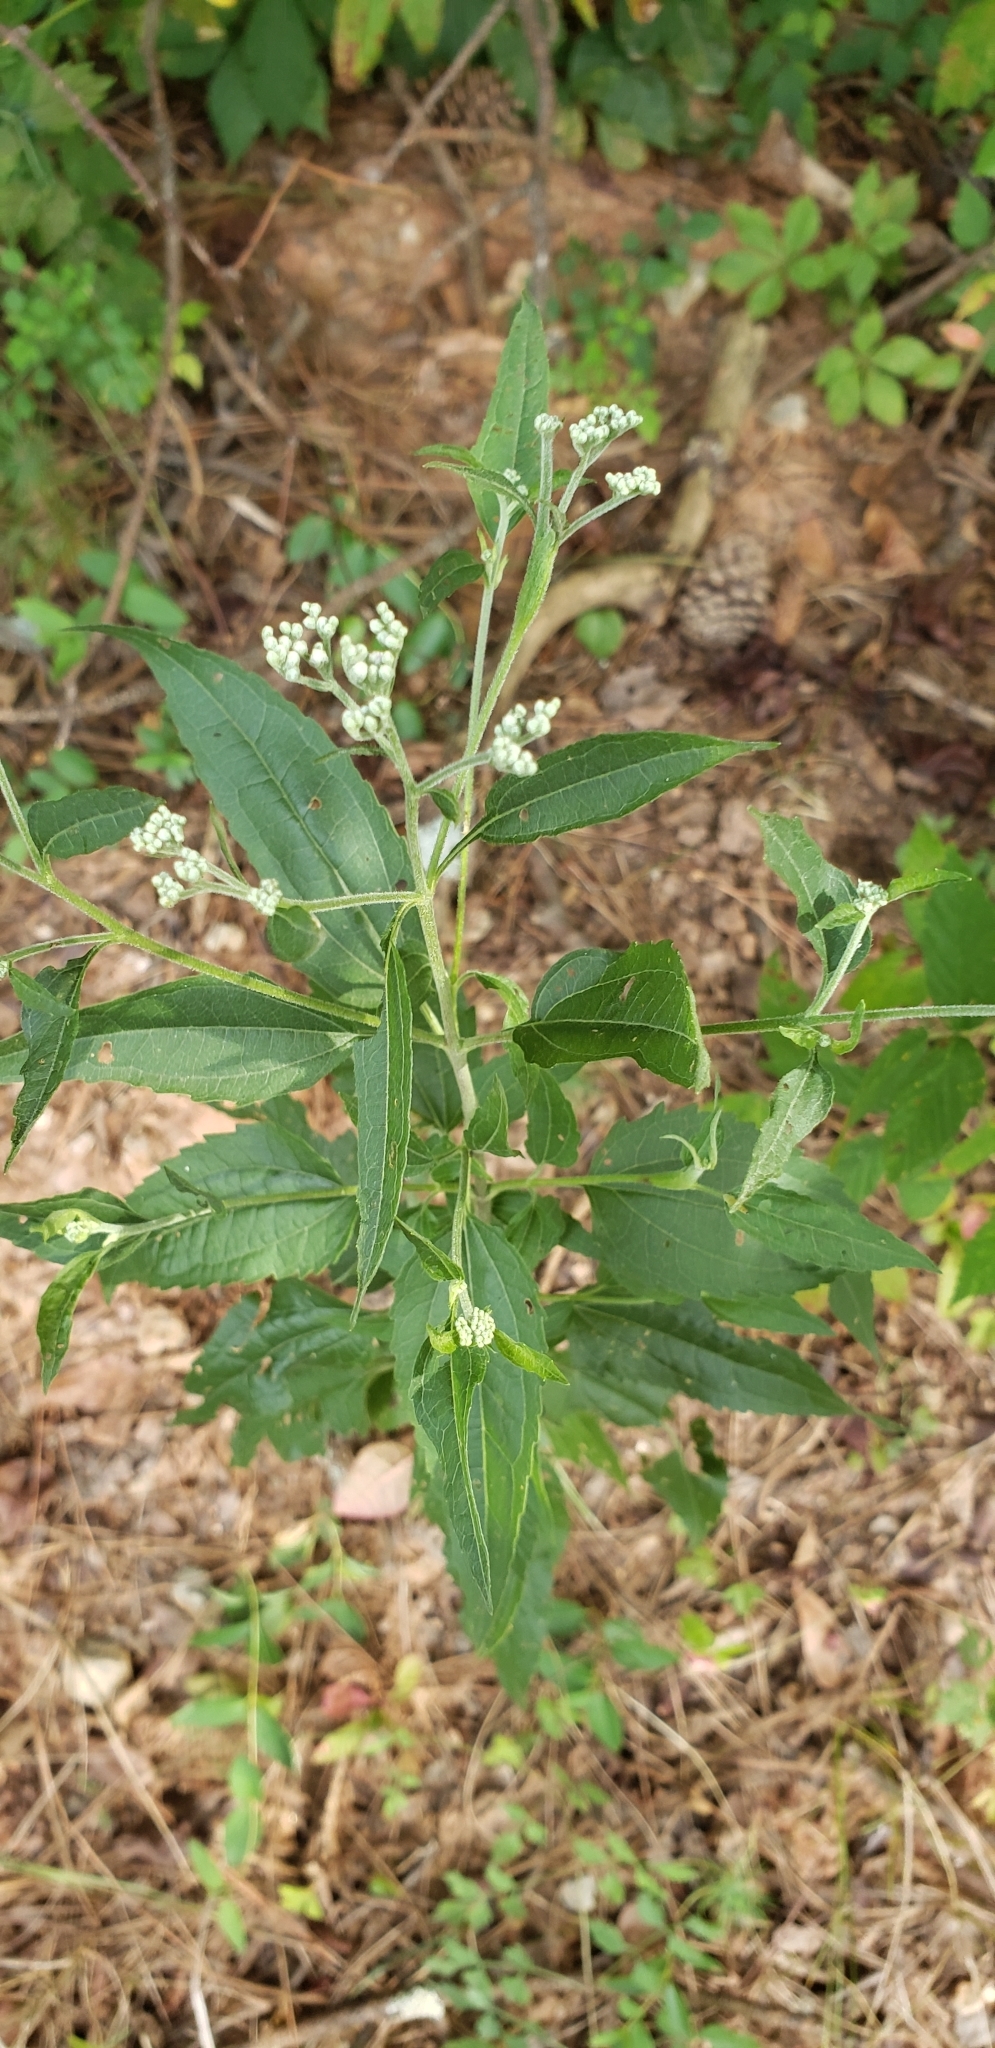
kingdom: Plantae
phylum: Tracheophyta
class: Magnoliopsida
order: Asterales
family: Asteraceae
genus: Eupatorium
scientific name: Eupatorium serotinum
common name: Late boneset
